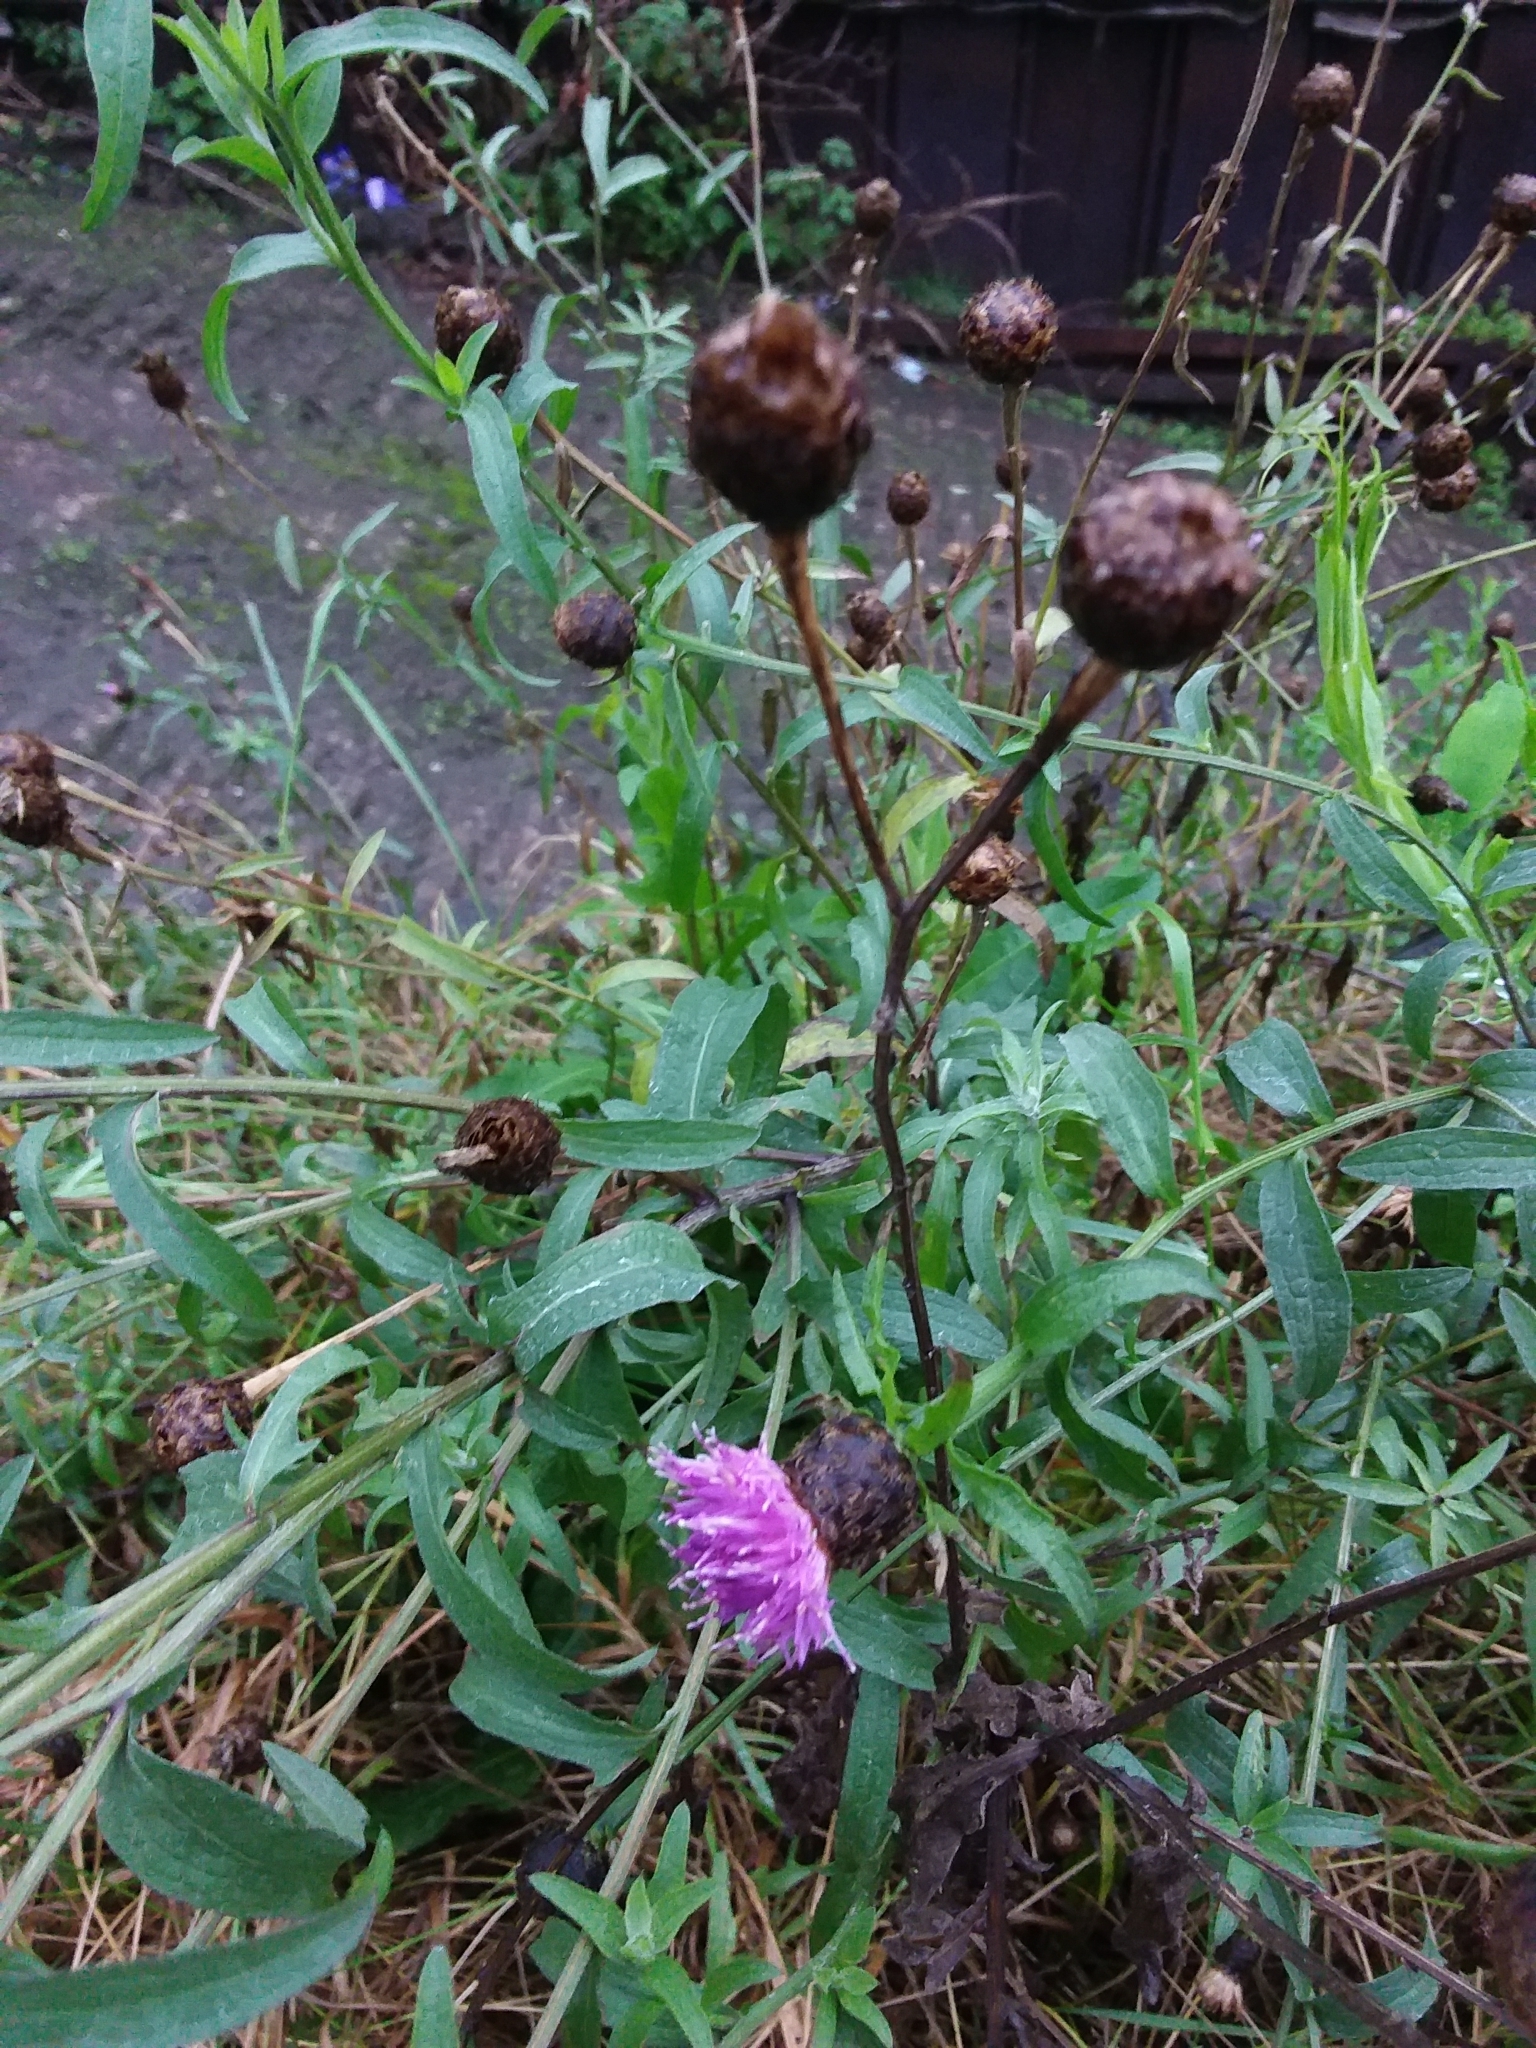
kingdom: Plantae
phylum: Tracheophyta
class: Magnoliopsida
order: Asterales
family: Asteraceae
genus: Centaurea
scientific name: Centaurea nigra
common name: Lesser knapweed
